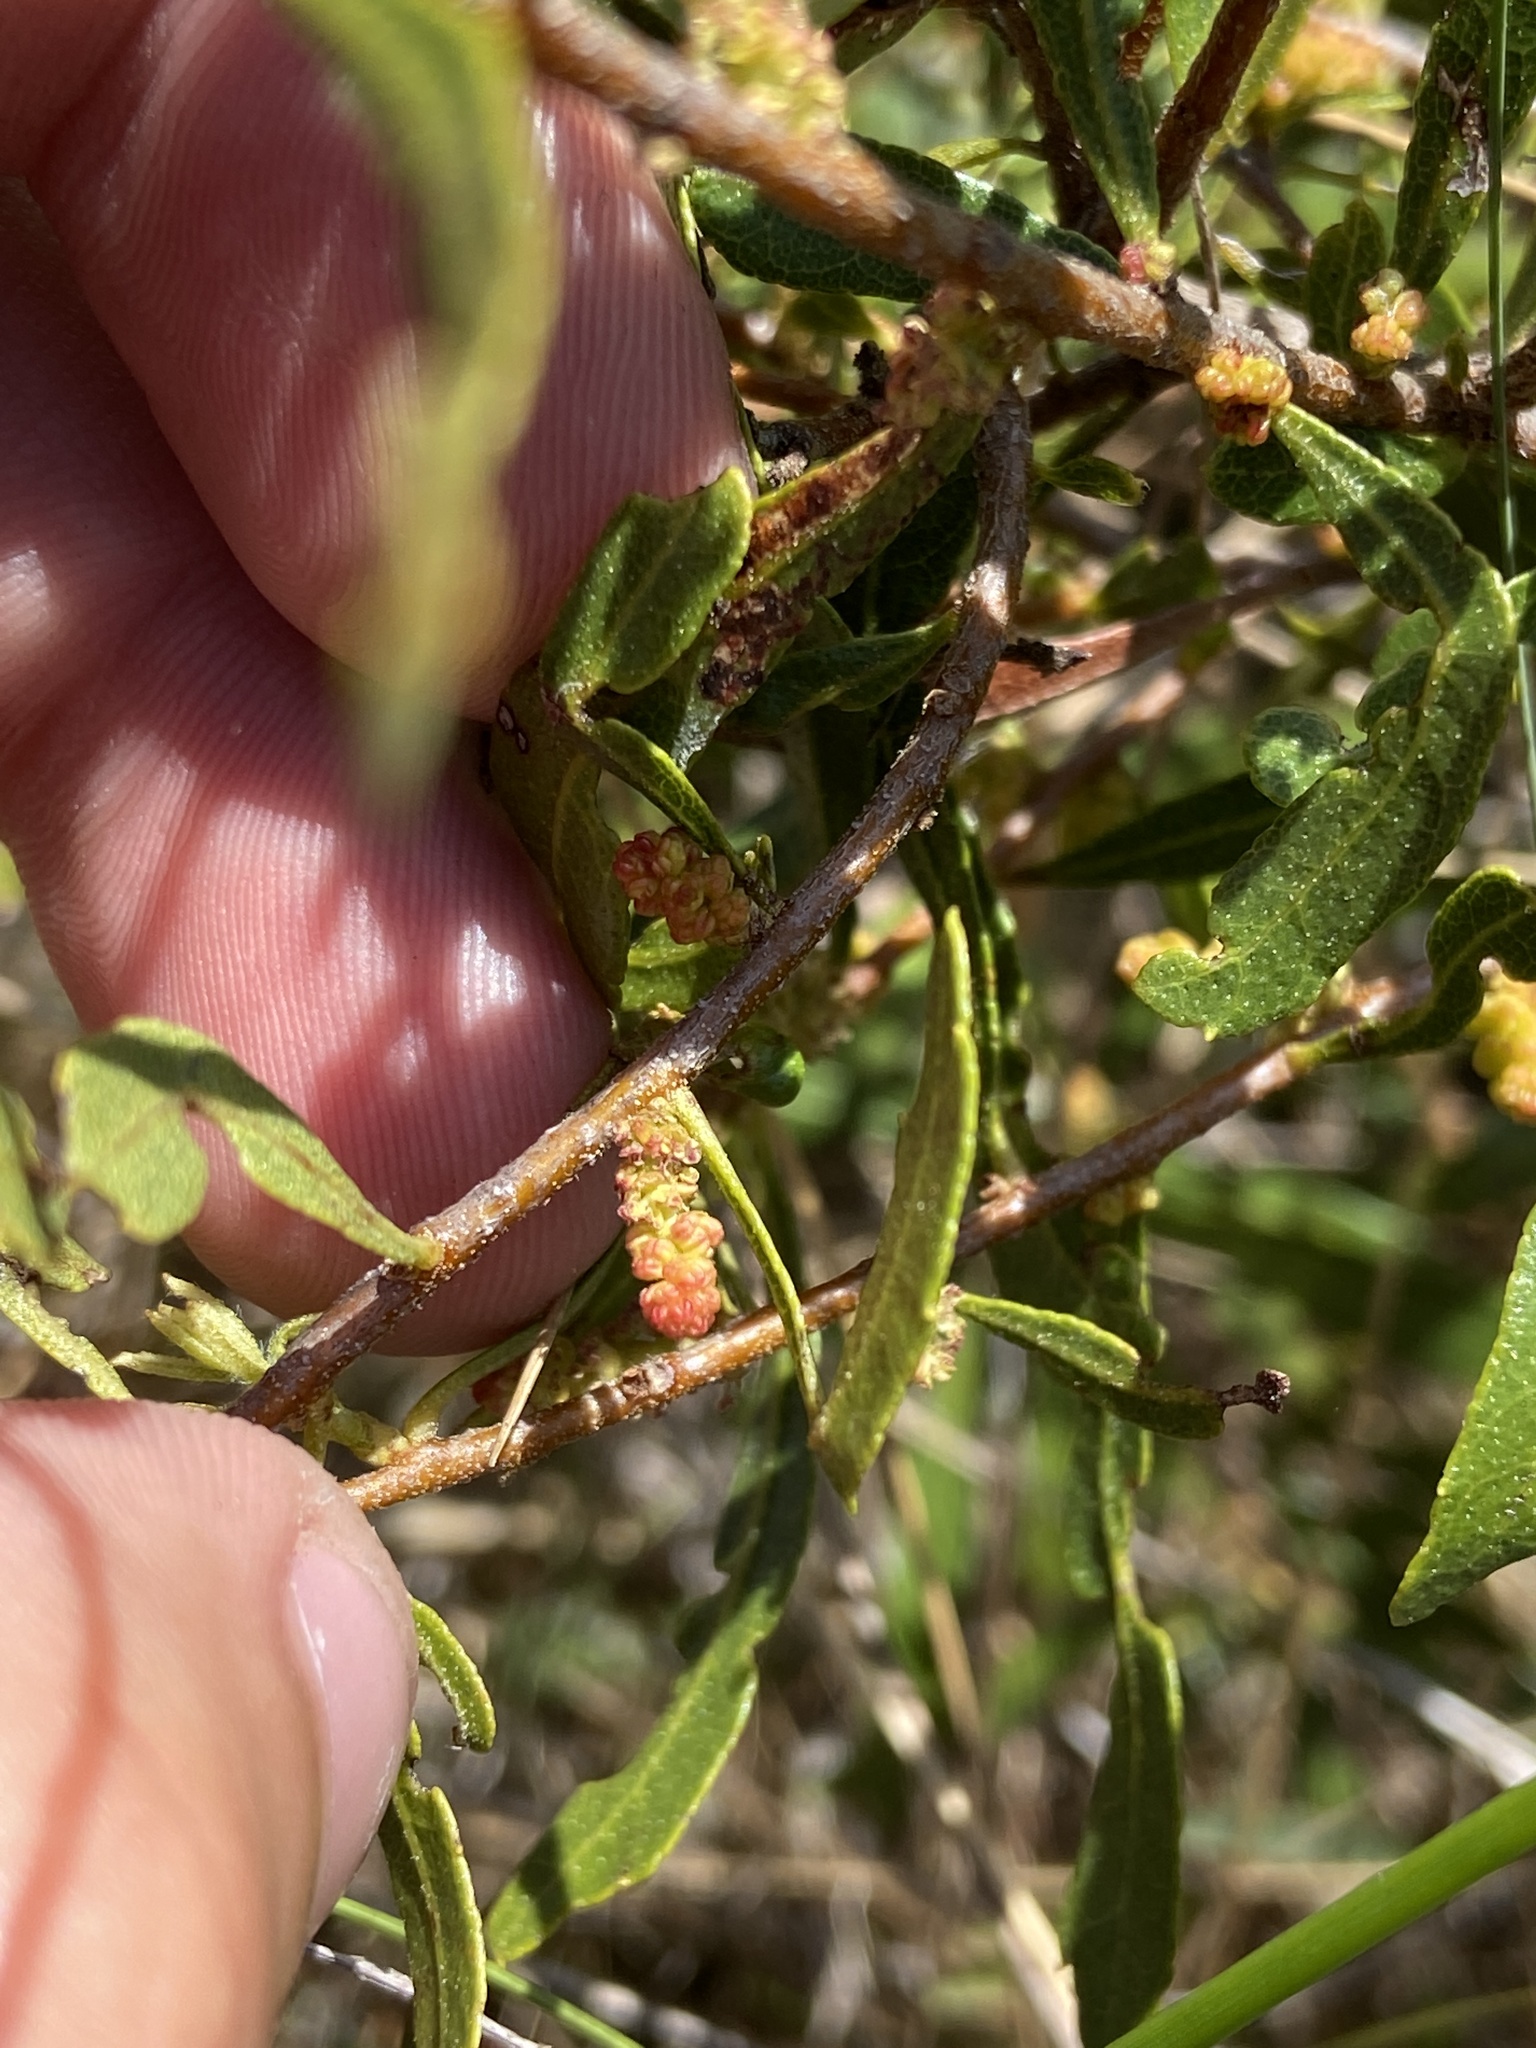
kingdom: Plantae
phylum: Tracheophyta
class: Magnoliopsida
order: Fagales
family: Myricaceae
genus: Morella
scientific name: Morella cerifera
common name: Wax myrtle
